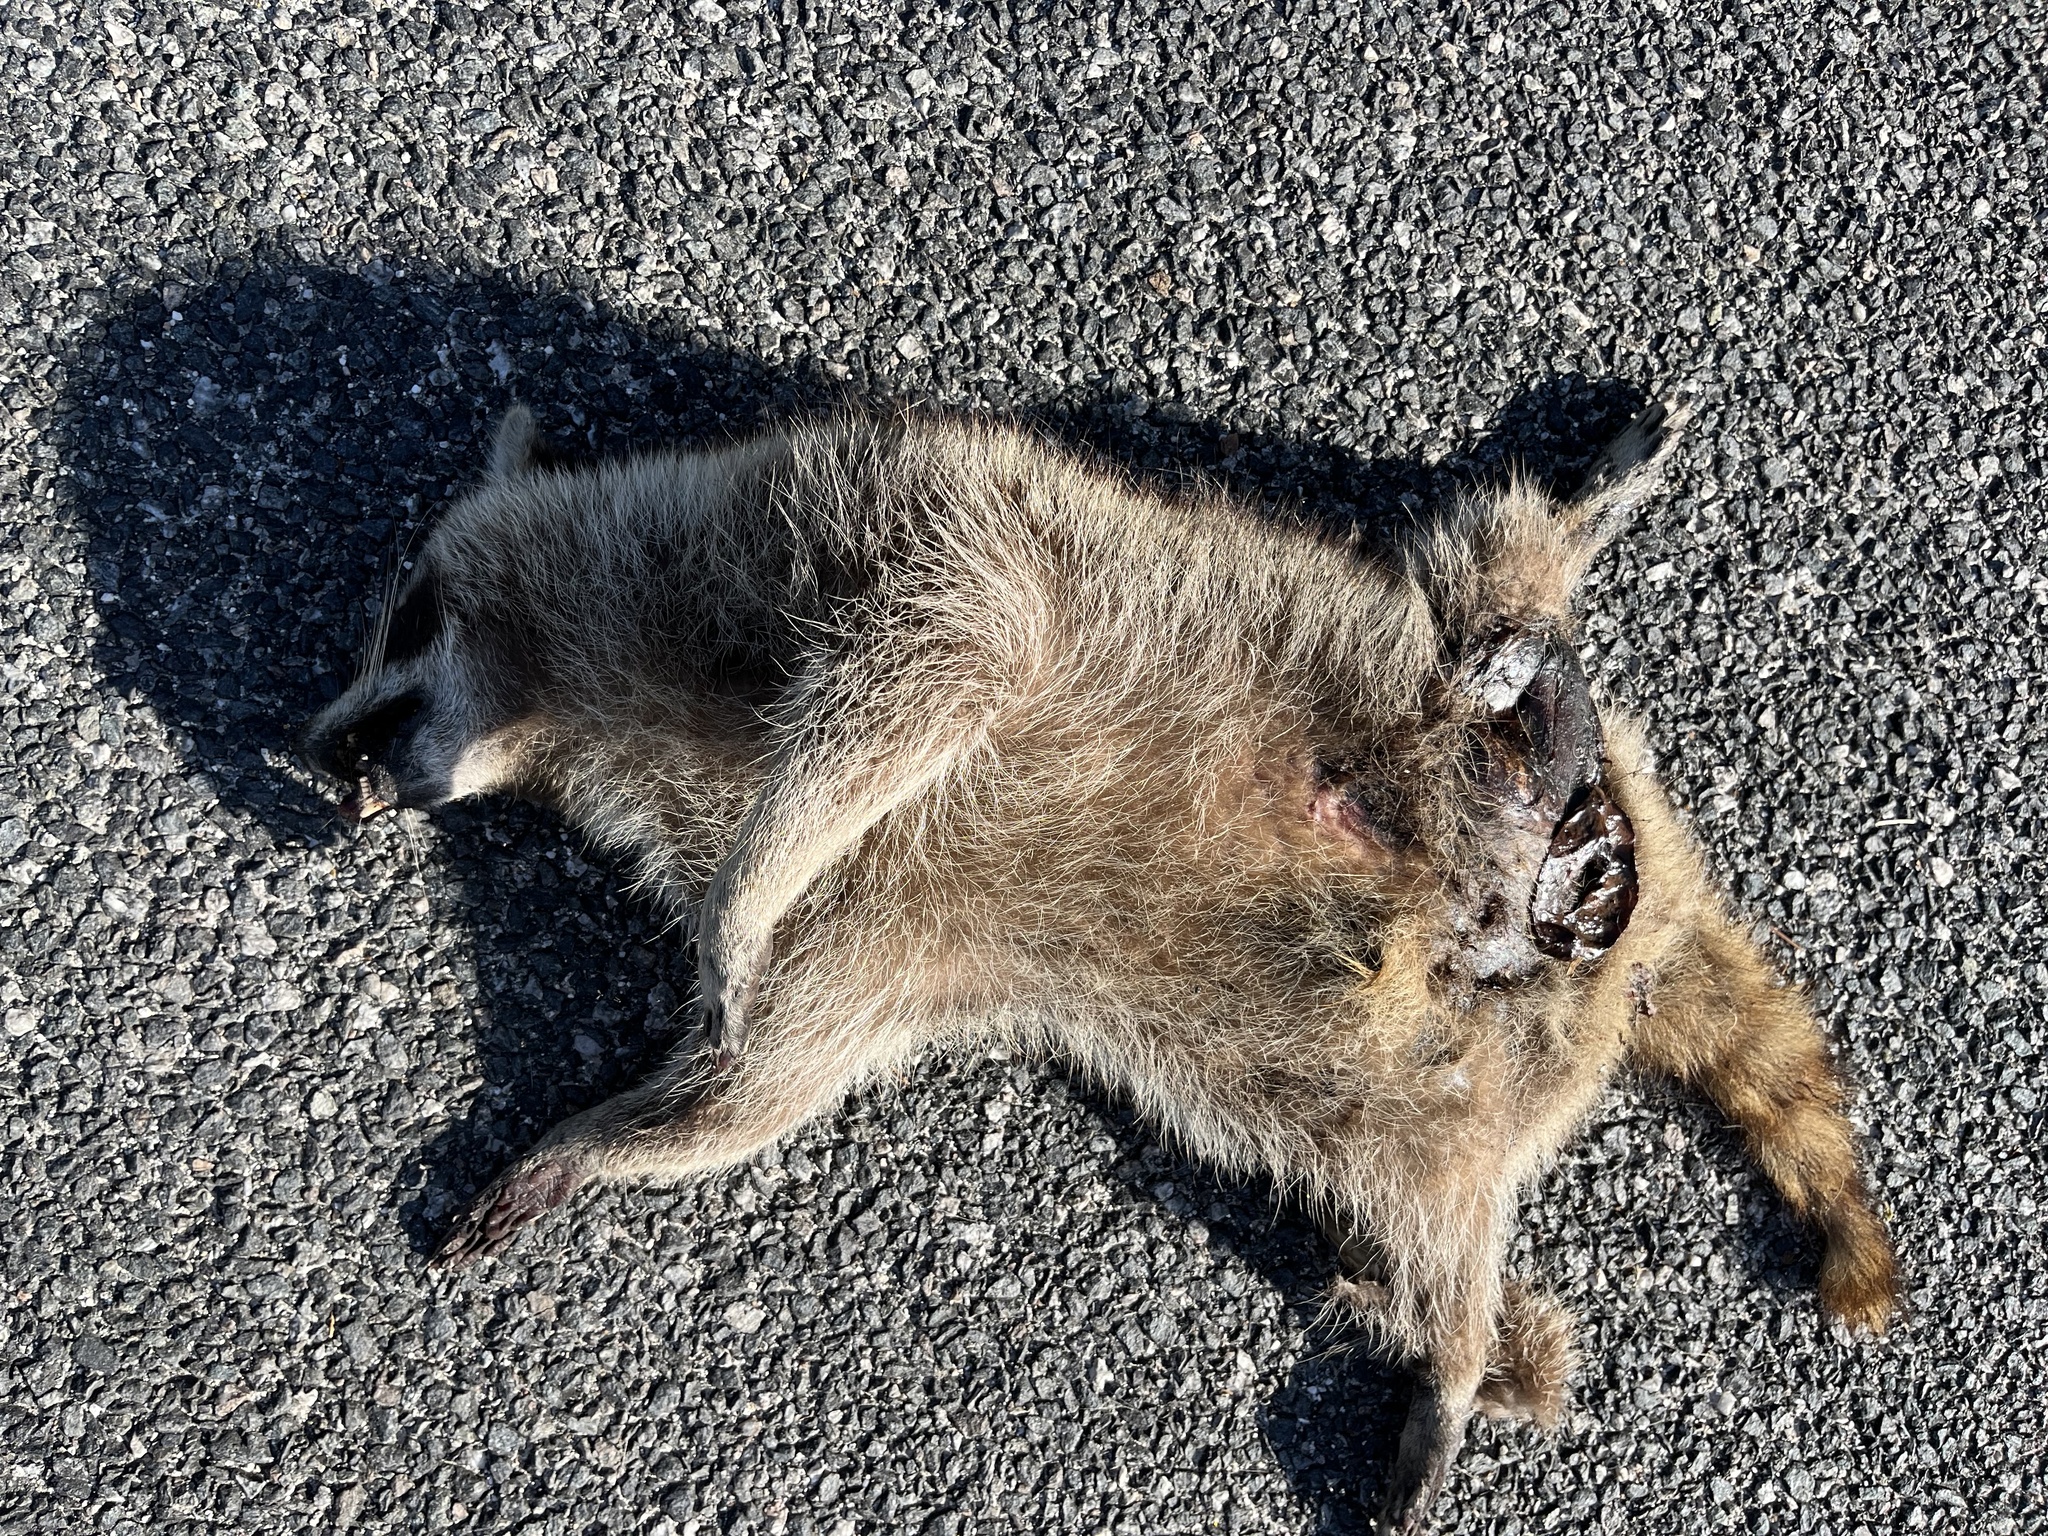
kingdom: Animalia
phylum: Chordata
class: Mammalia
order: Carnivora
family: Procyonidae
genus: Procyon
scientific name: Procyon lotor
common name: Raccoon
